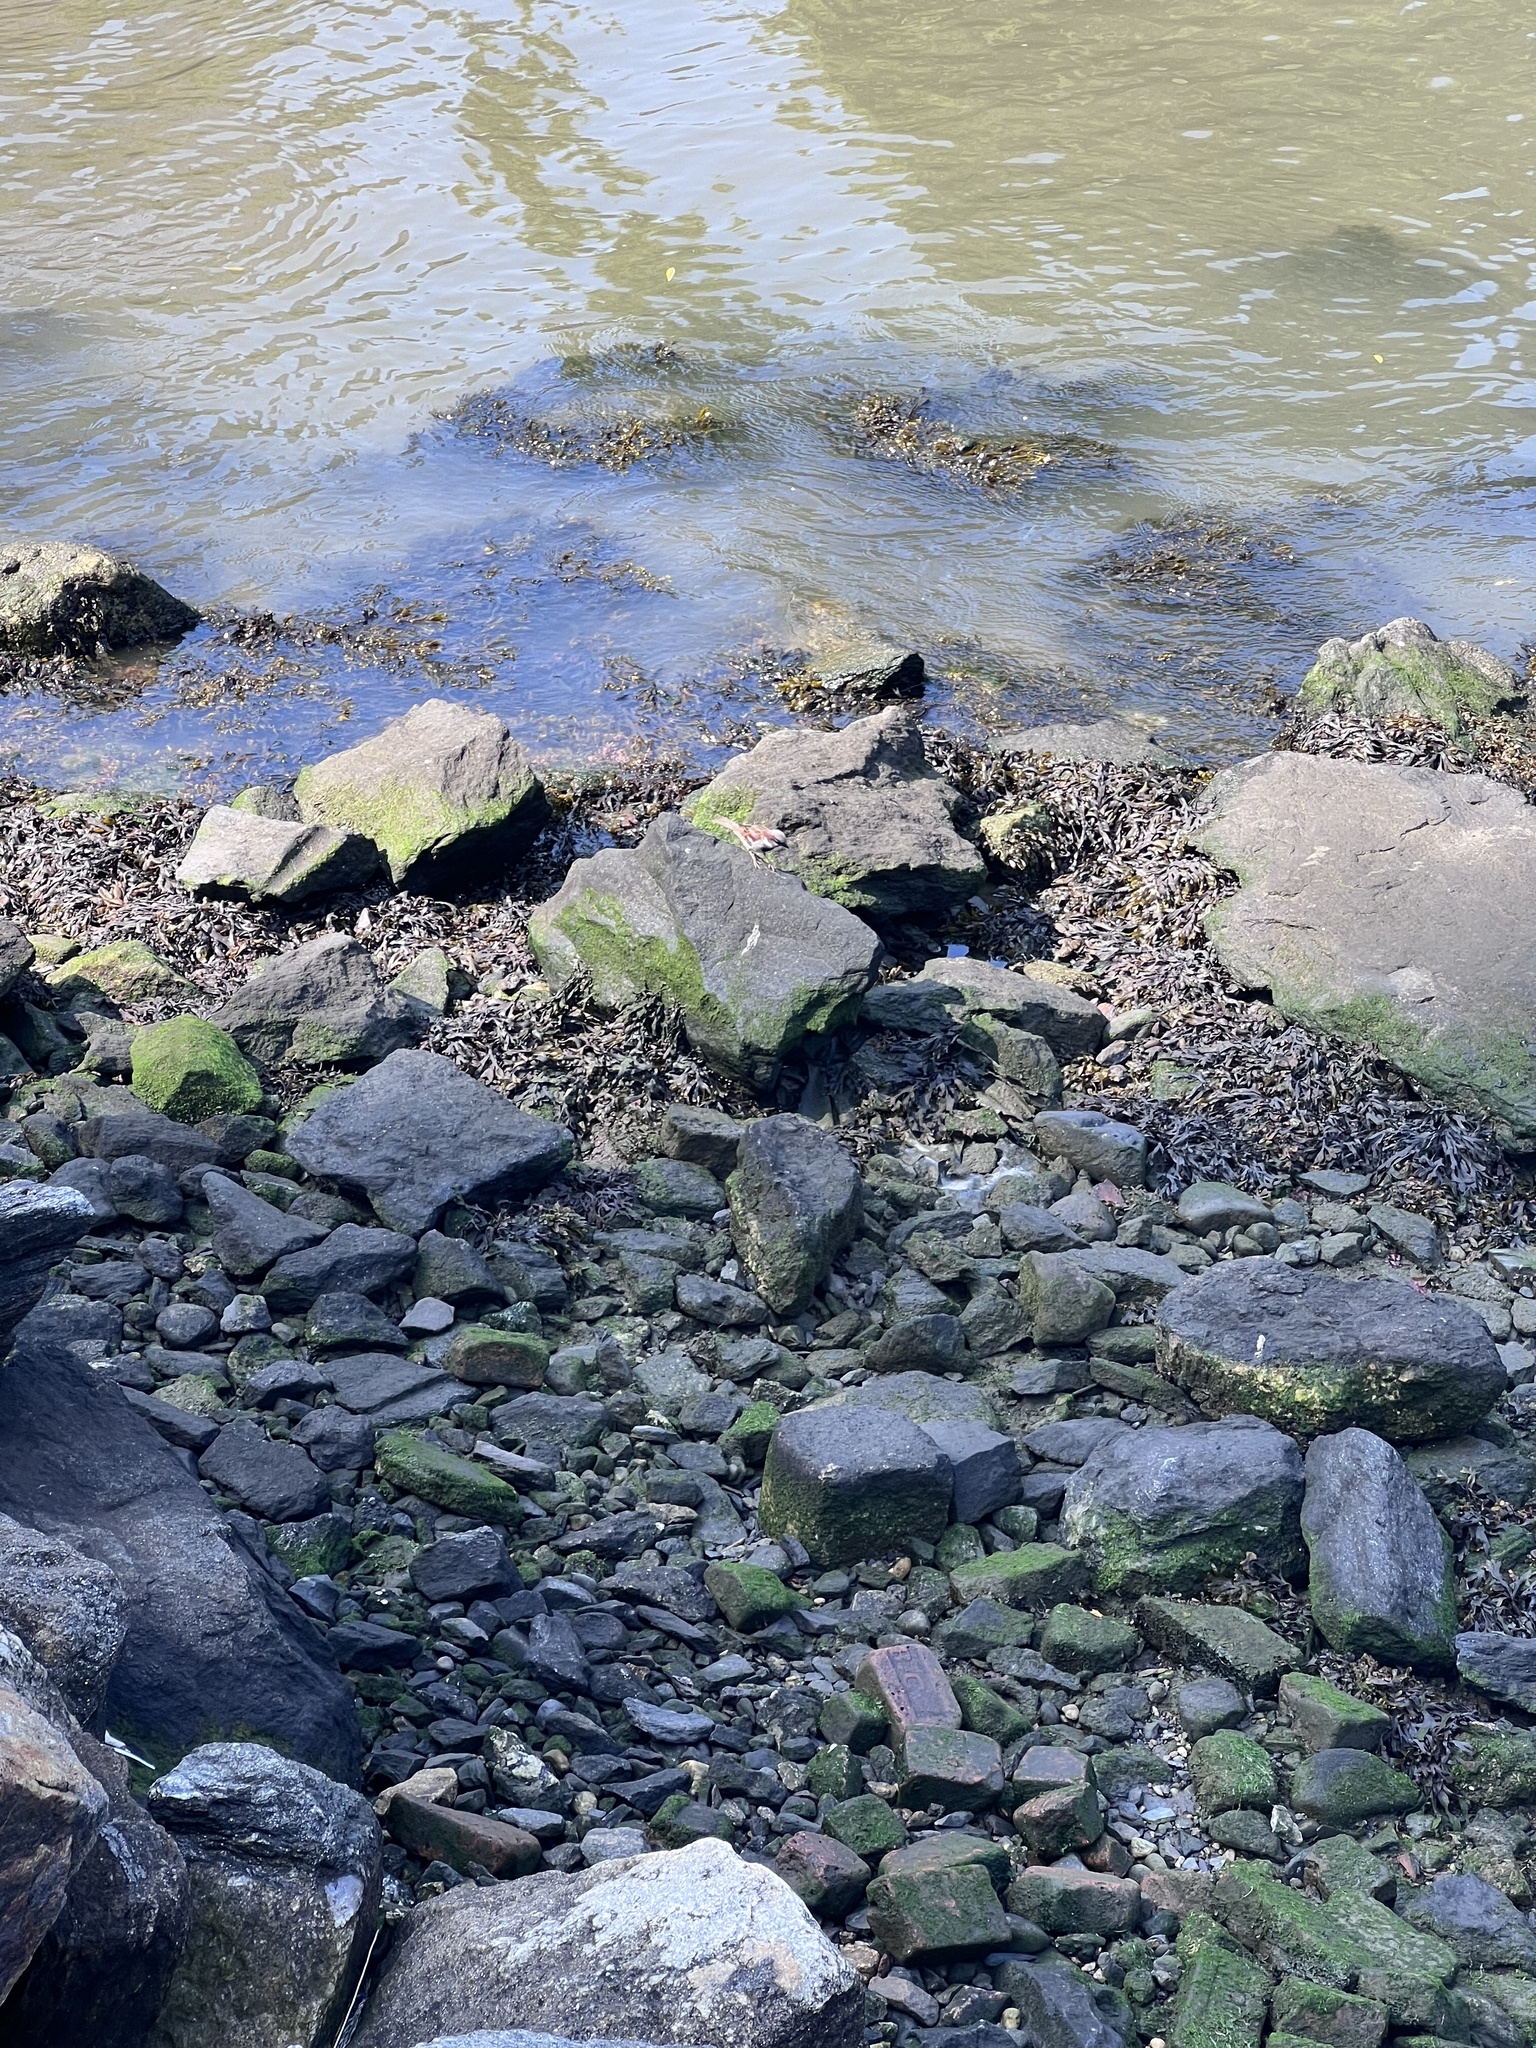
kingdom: Animalia
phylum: Chordata
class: Aves
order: Passeriformes
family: Passeridae
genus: Passer
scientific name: Passer domesticus
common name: House sparrow
